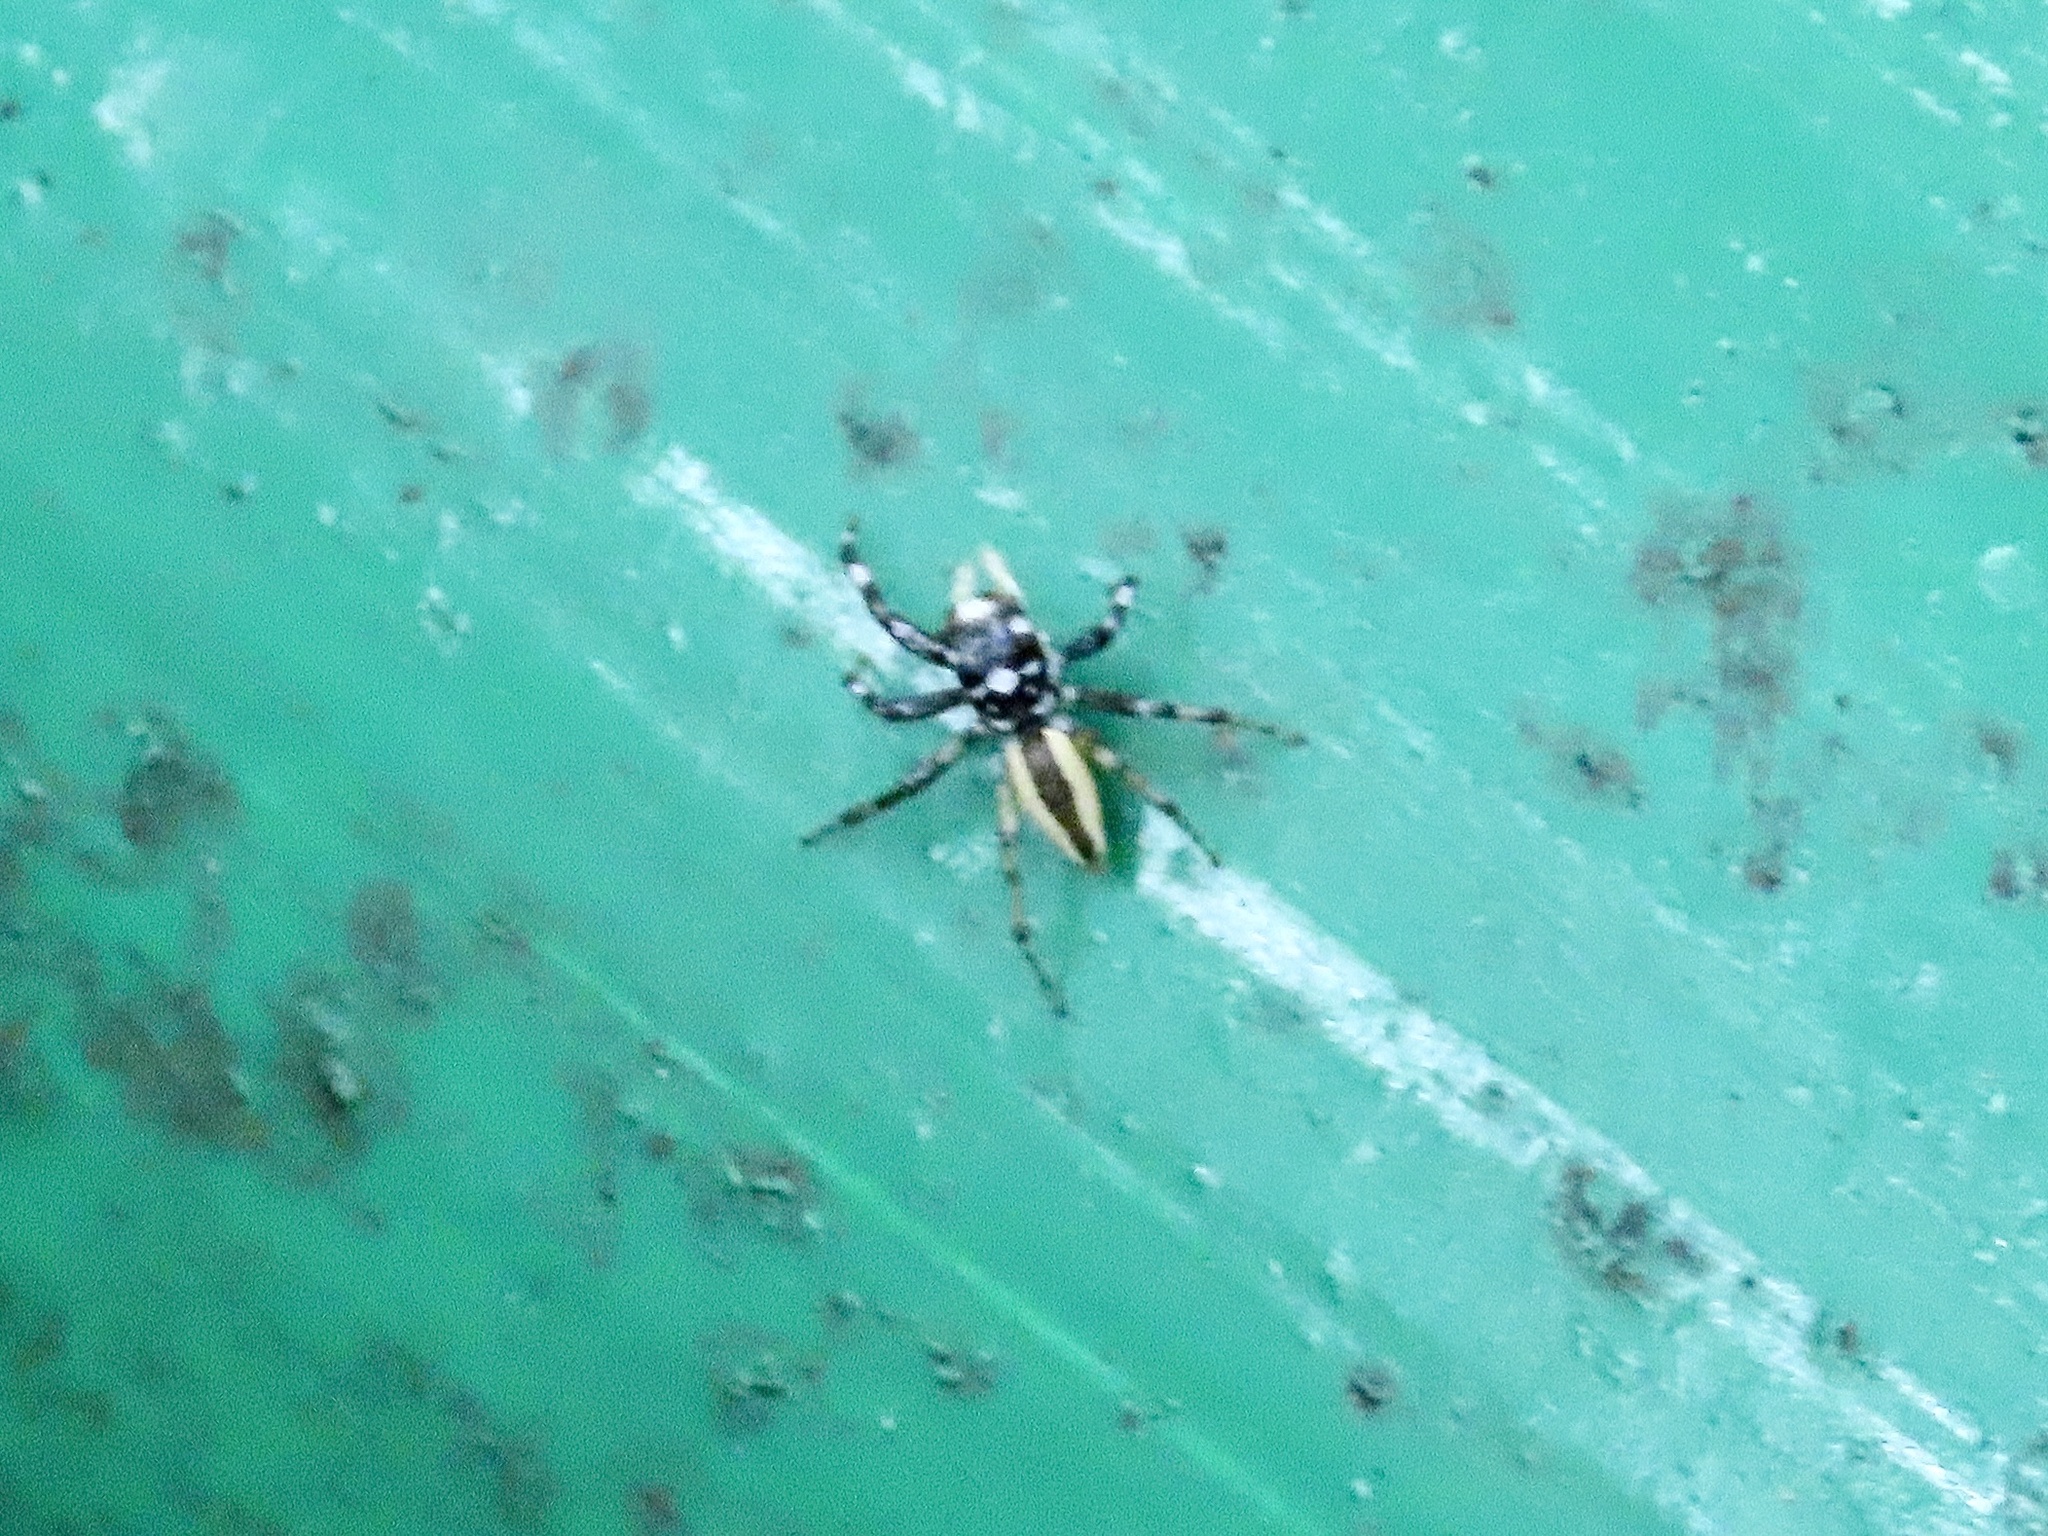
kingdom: Animalia
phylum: Arthropoda
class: Arachnida
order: Araneae
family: Salticidae
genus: Phintelloides
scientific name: Phintelloides versicolor
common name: Jumping spider
